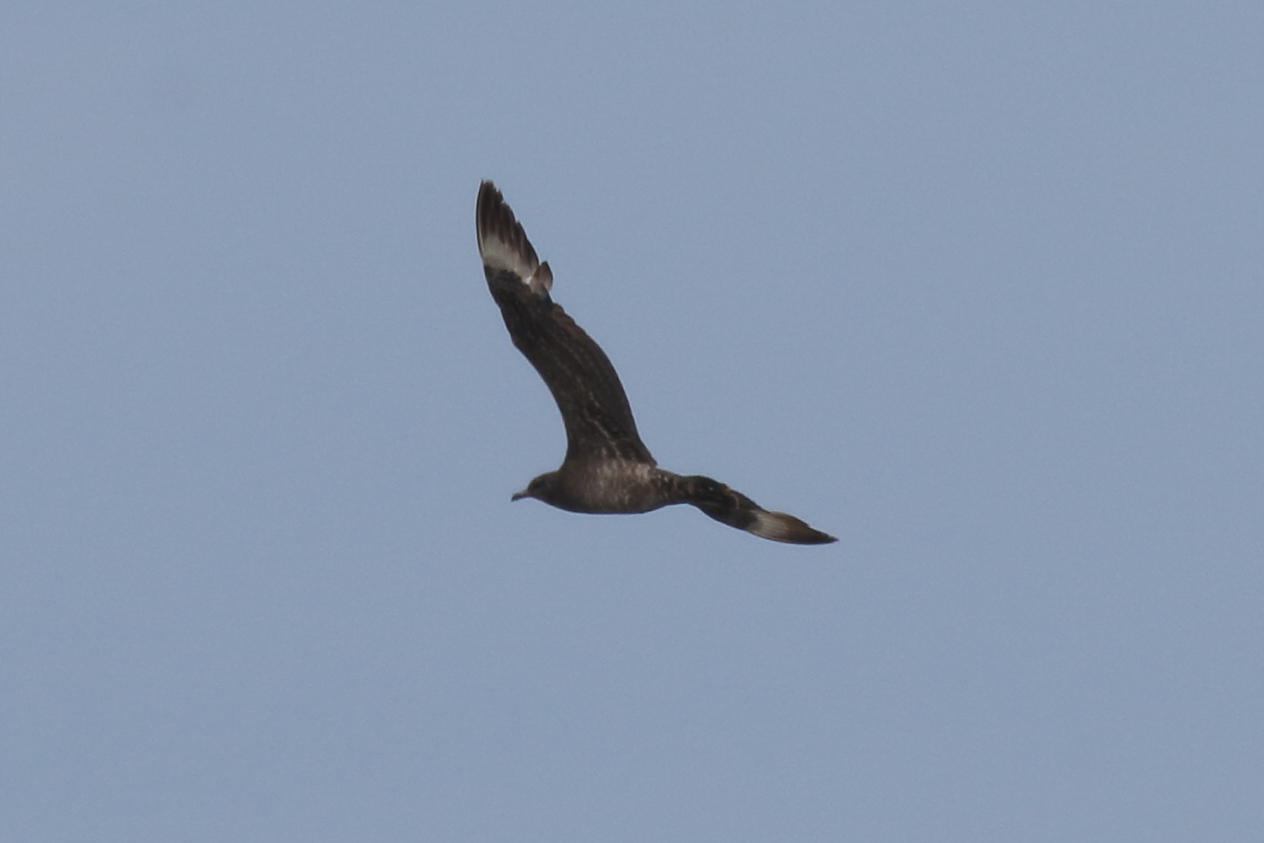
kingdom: Animalia
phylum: Chordata
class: Aves
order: Charadriiformes
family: Stercorariidae
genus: Stercorarius
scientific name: Stercorarius parasiticus
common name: Parasitic jaeger
